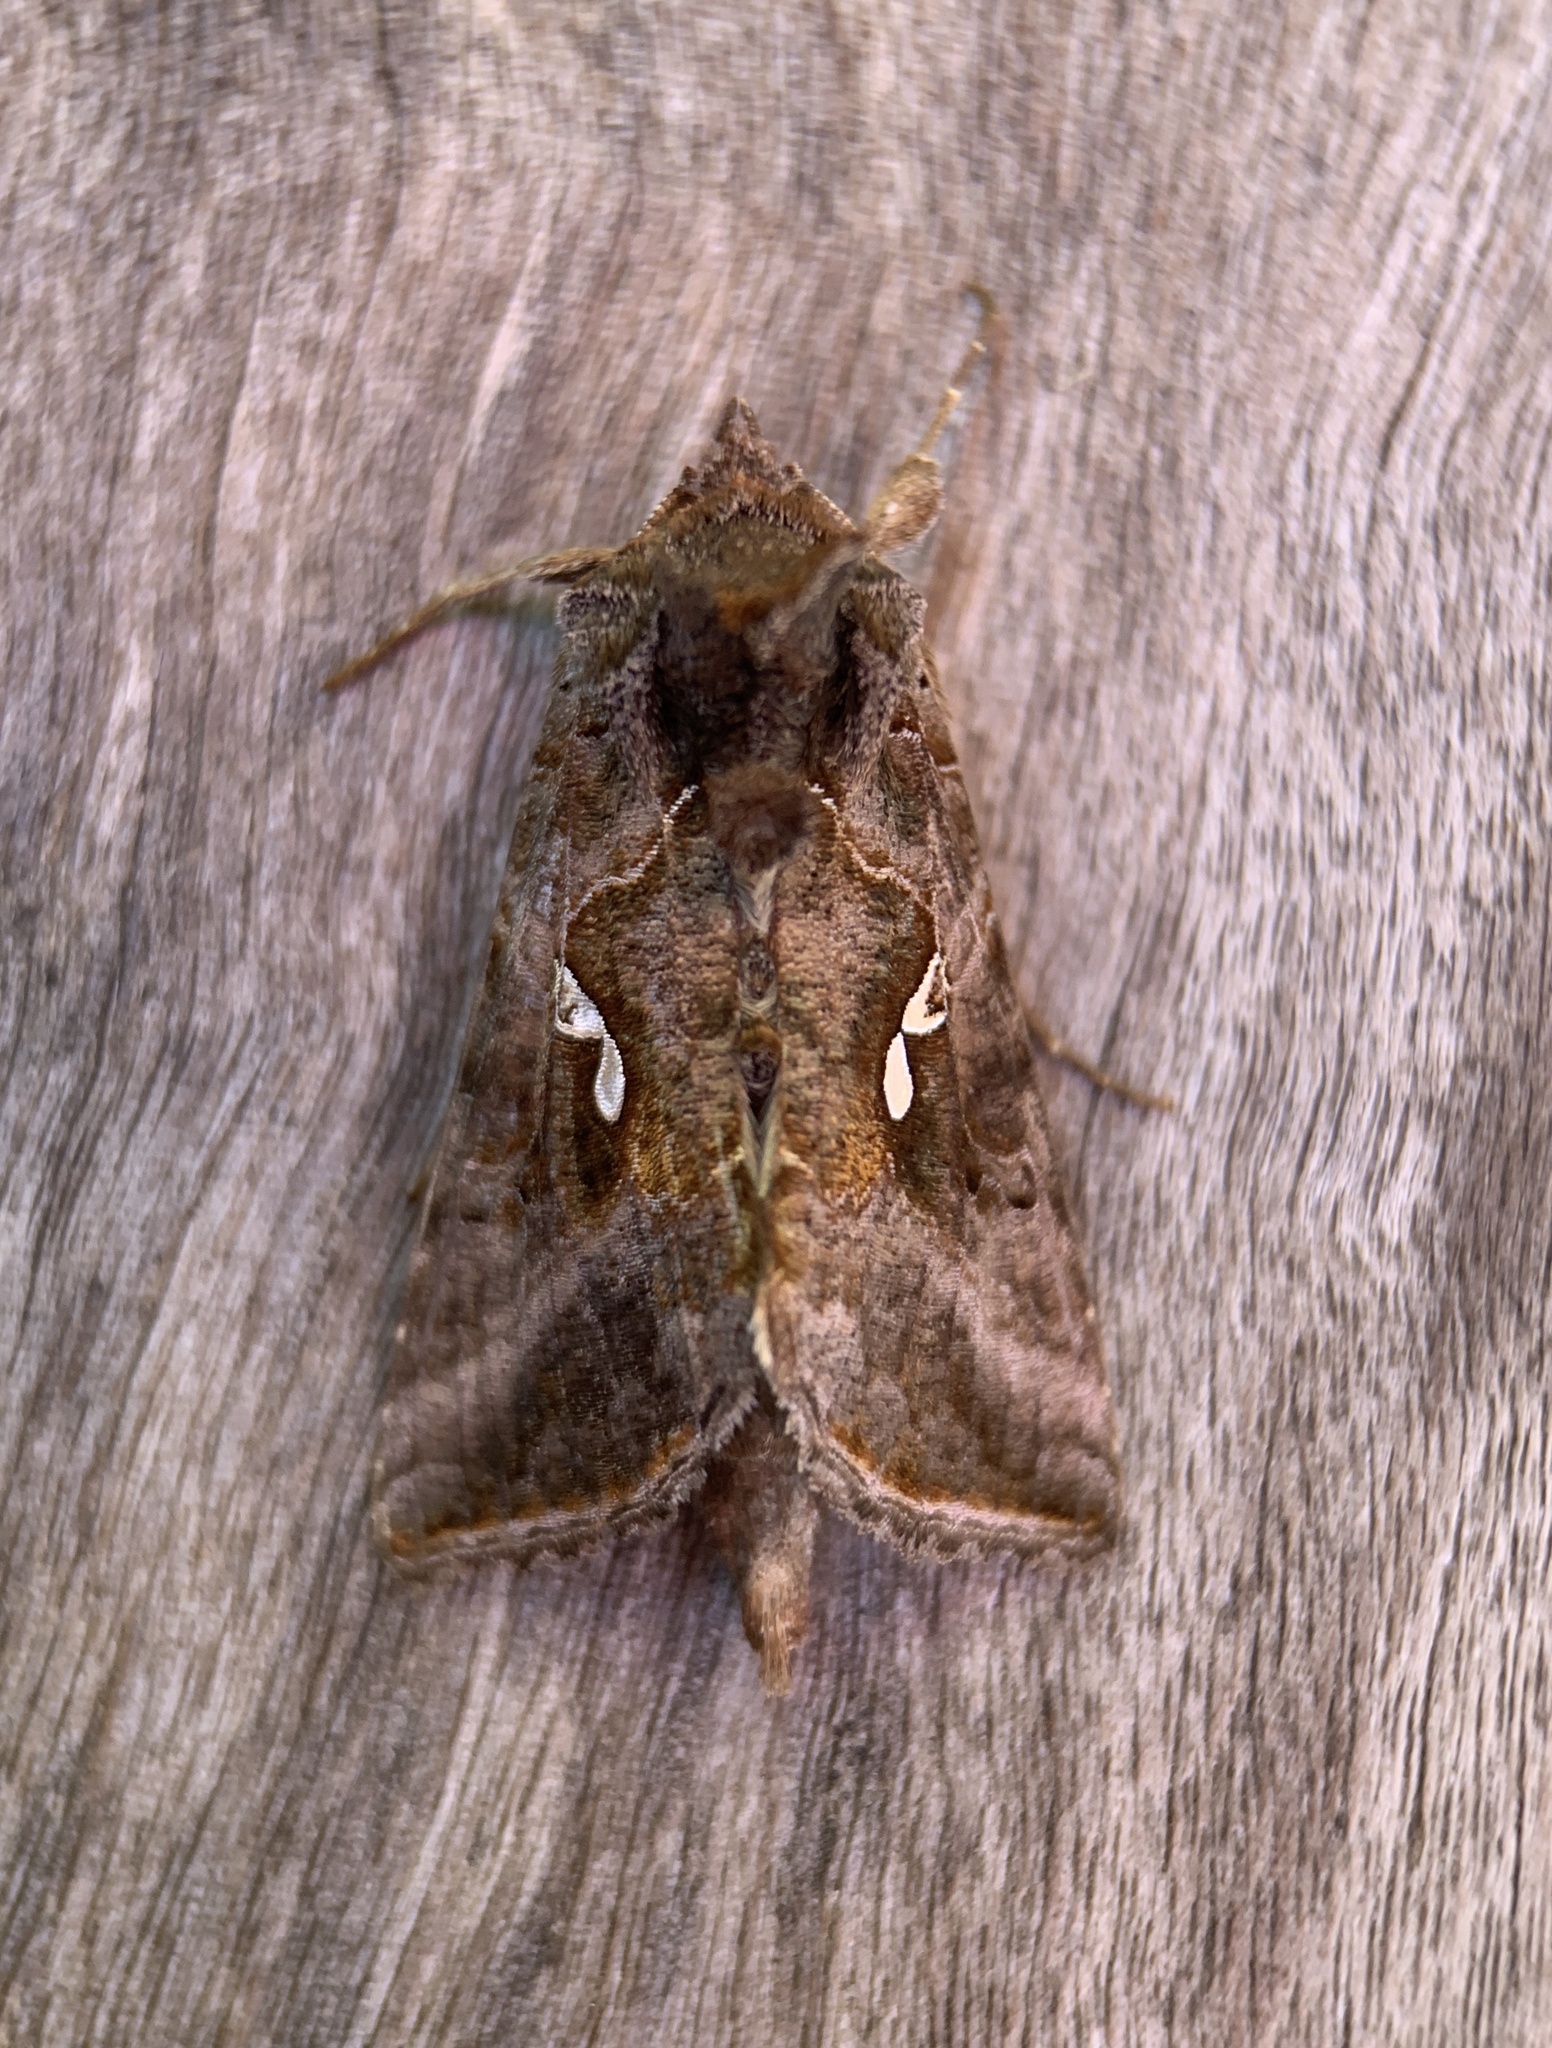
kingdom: Animalia
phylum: Arthropoda
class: Insecta
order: Lepidoptera
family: Noctuidae
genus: Autographa
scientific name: Autographa precationis
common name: Common looper moth
